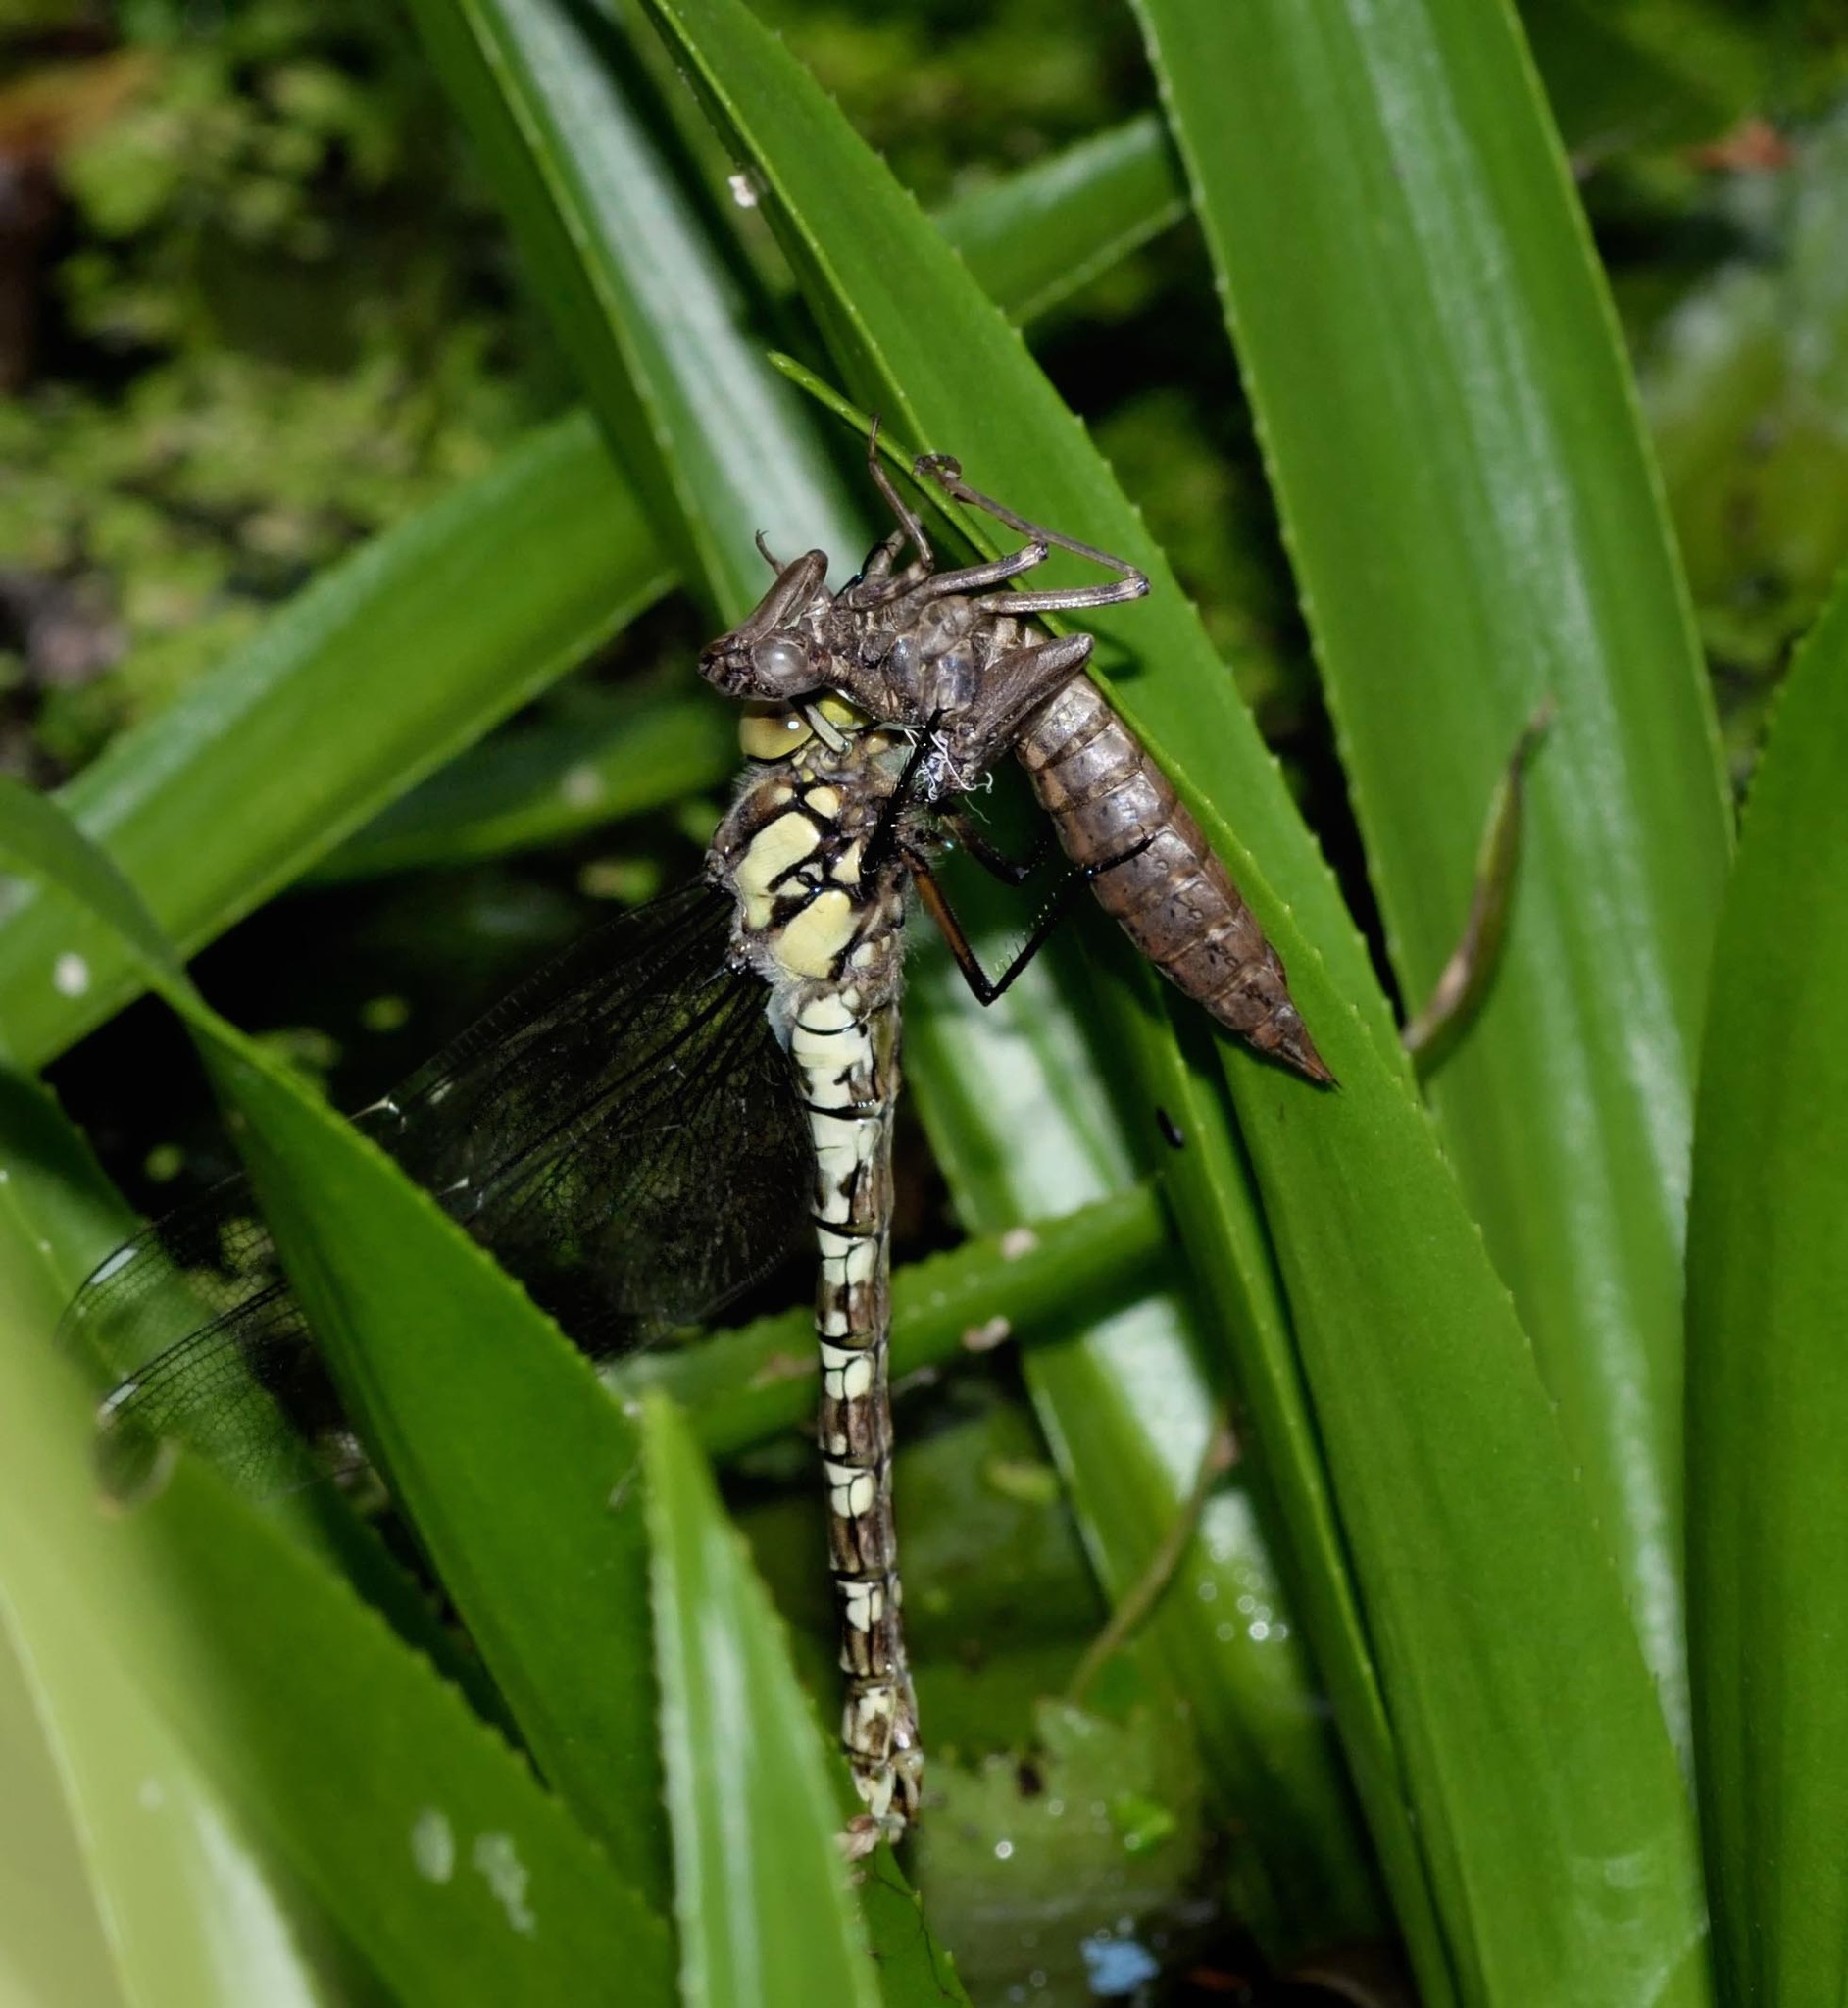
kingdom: Animalia
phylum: Arthropoda
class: Insecta
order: Odonata
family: Aeshnidae
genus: Aeshna
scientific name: Aeshna cyanea
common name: Southern hawker
